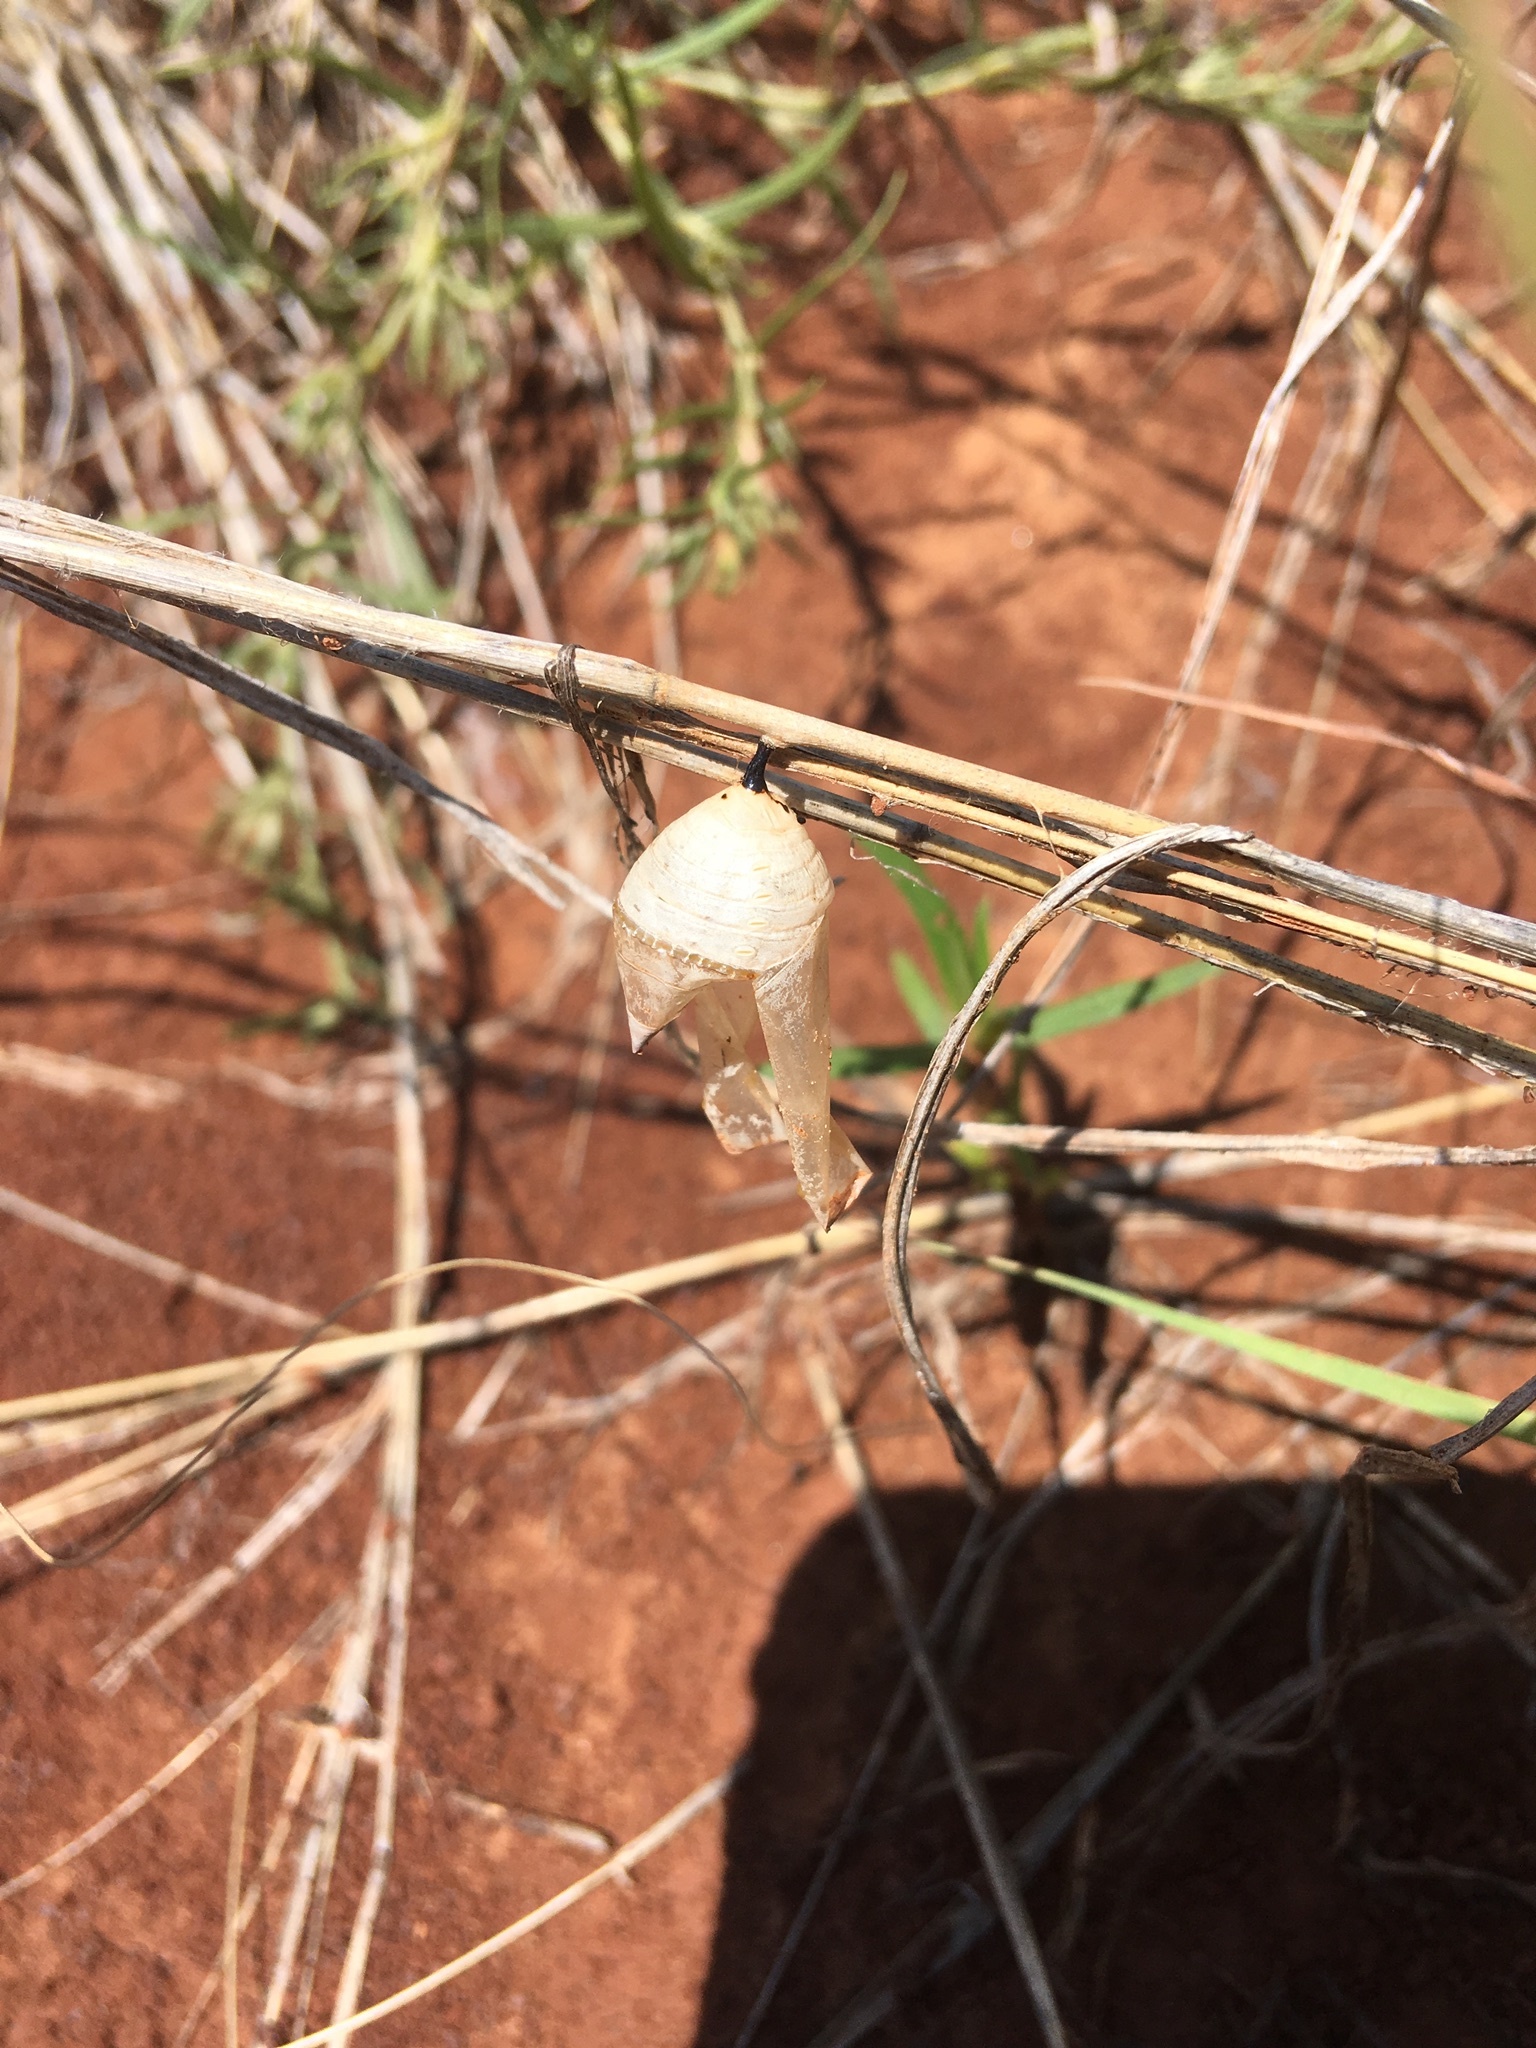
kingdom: Animalia
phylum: Arthropoda
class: Insecta
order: Lepidoptera
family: Nymphalidae
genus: Danaus
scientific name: Danaus plexippus
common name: Monarch
